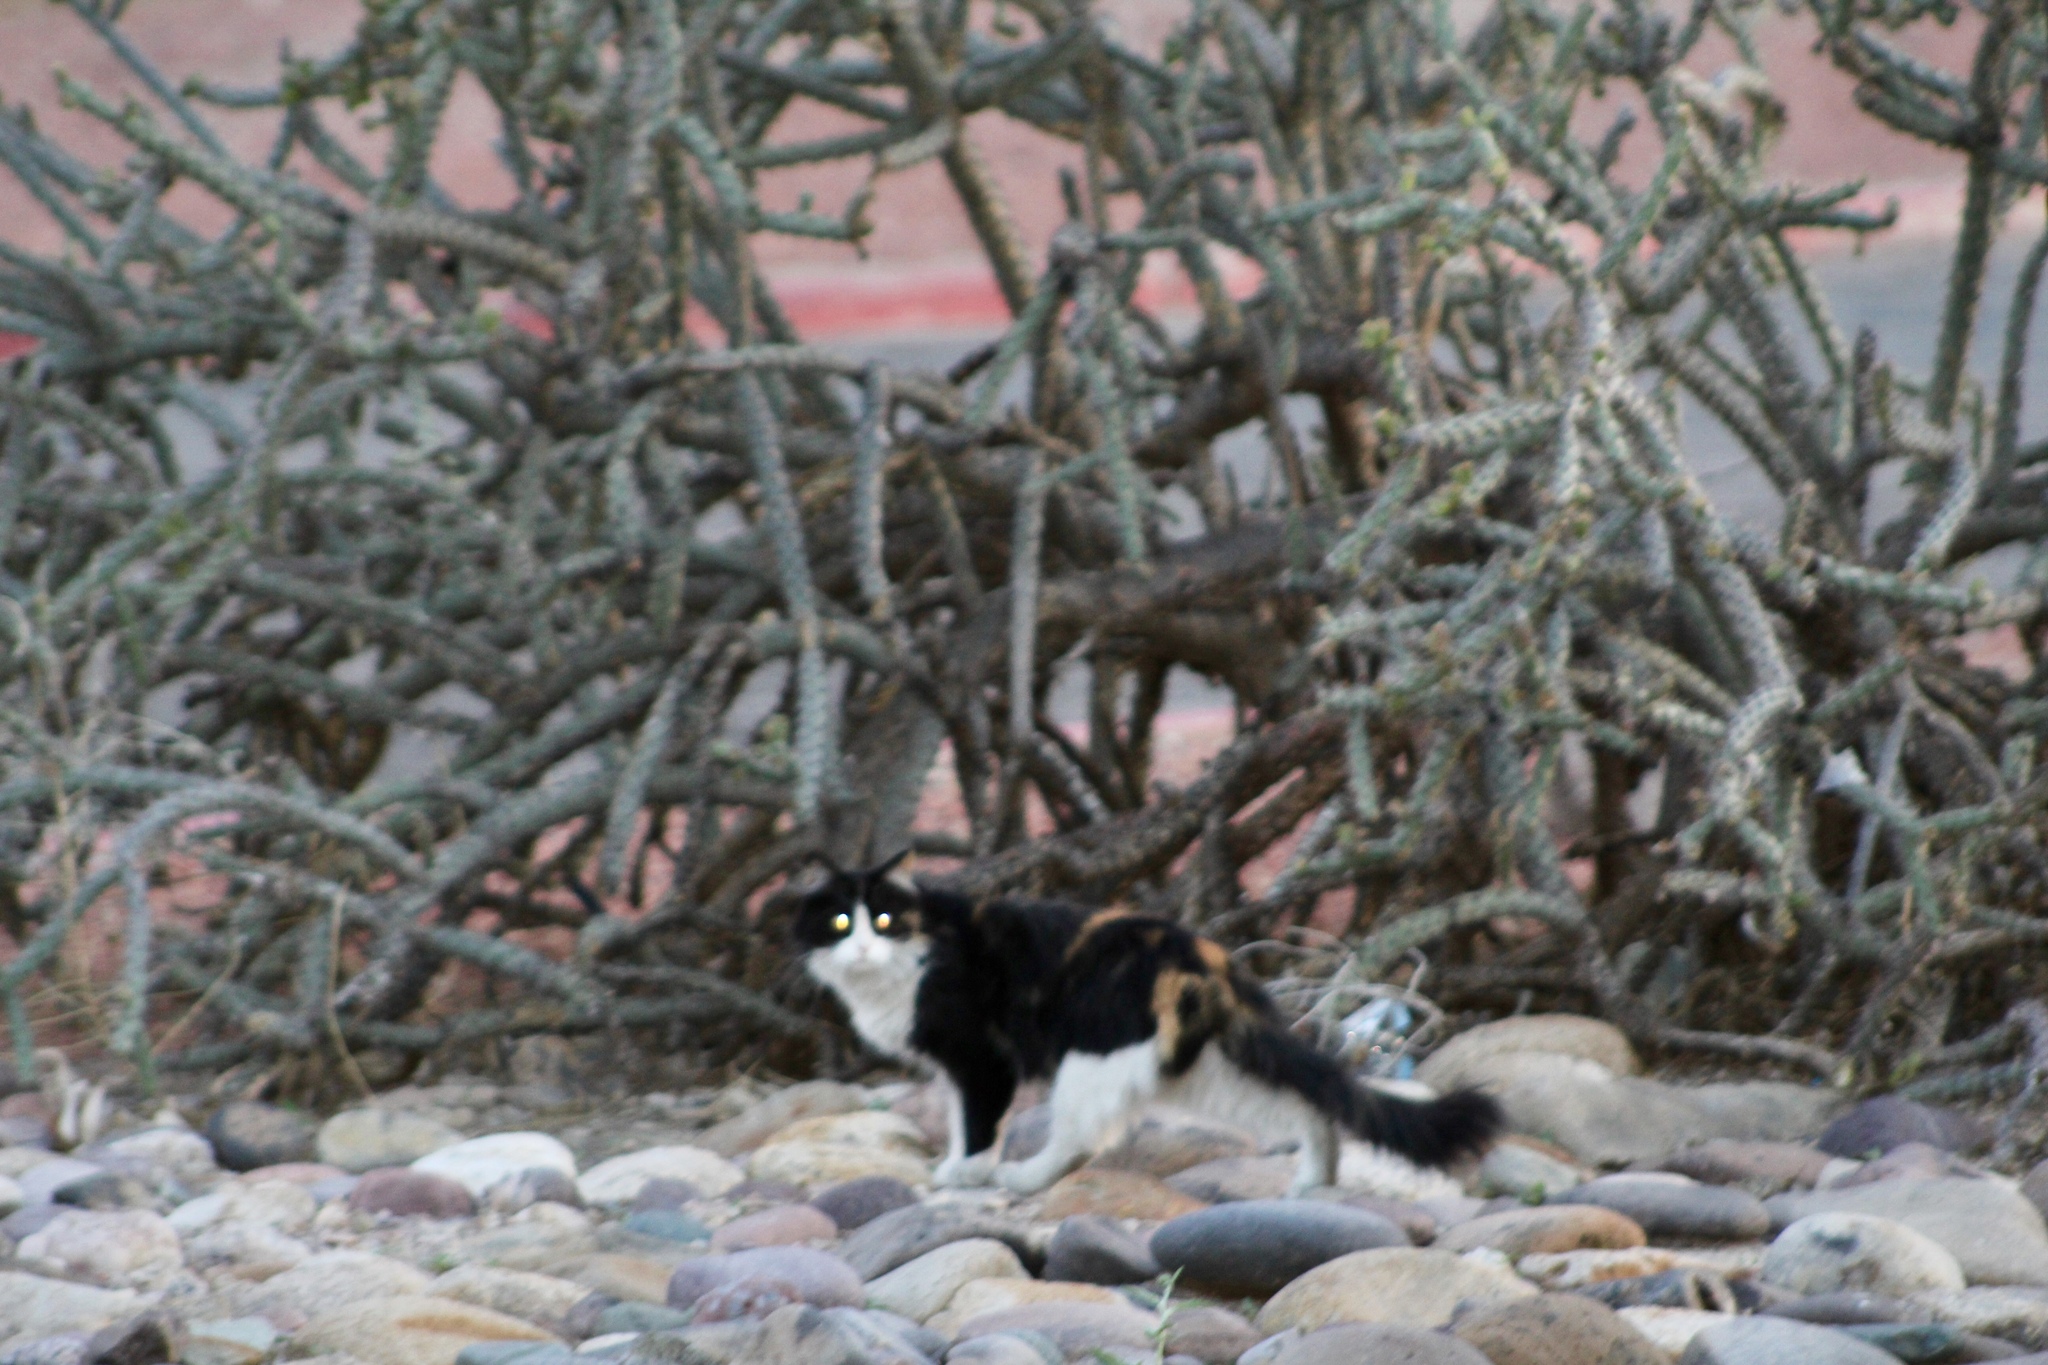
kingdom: Animalia
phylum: Chordata
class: Mammalia
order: Carnivora
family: Felidae
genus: Felis
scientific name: Felis catus
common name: Domestic cat
